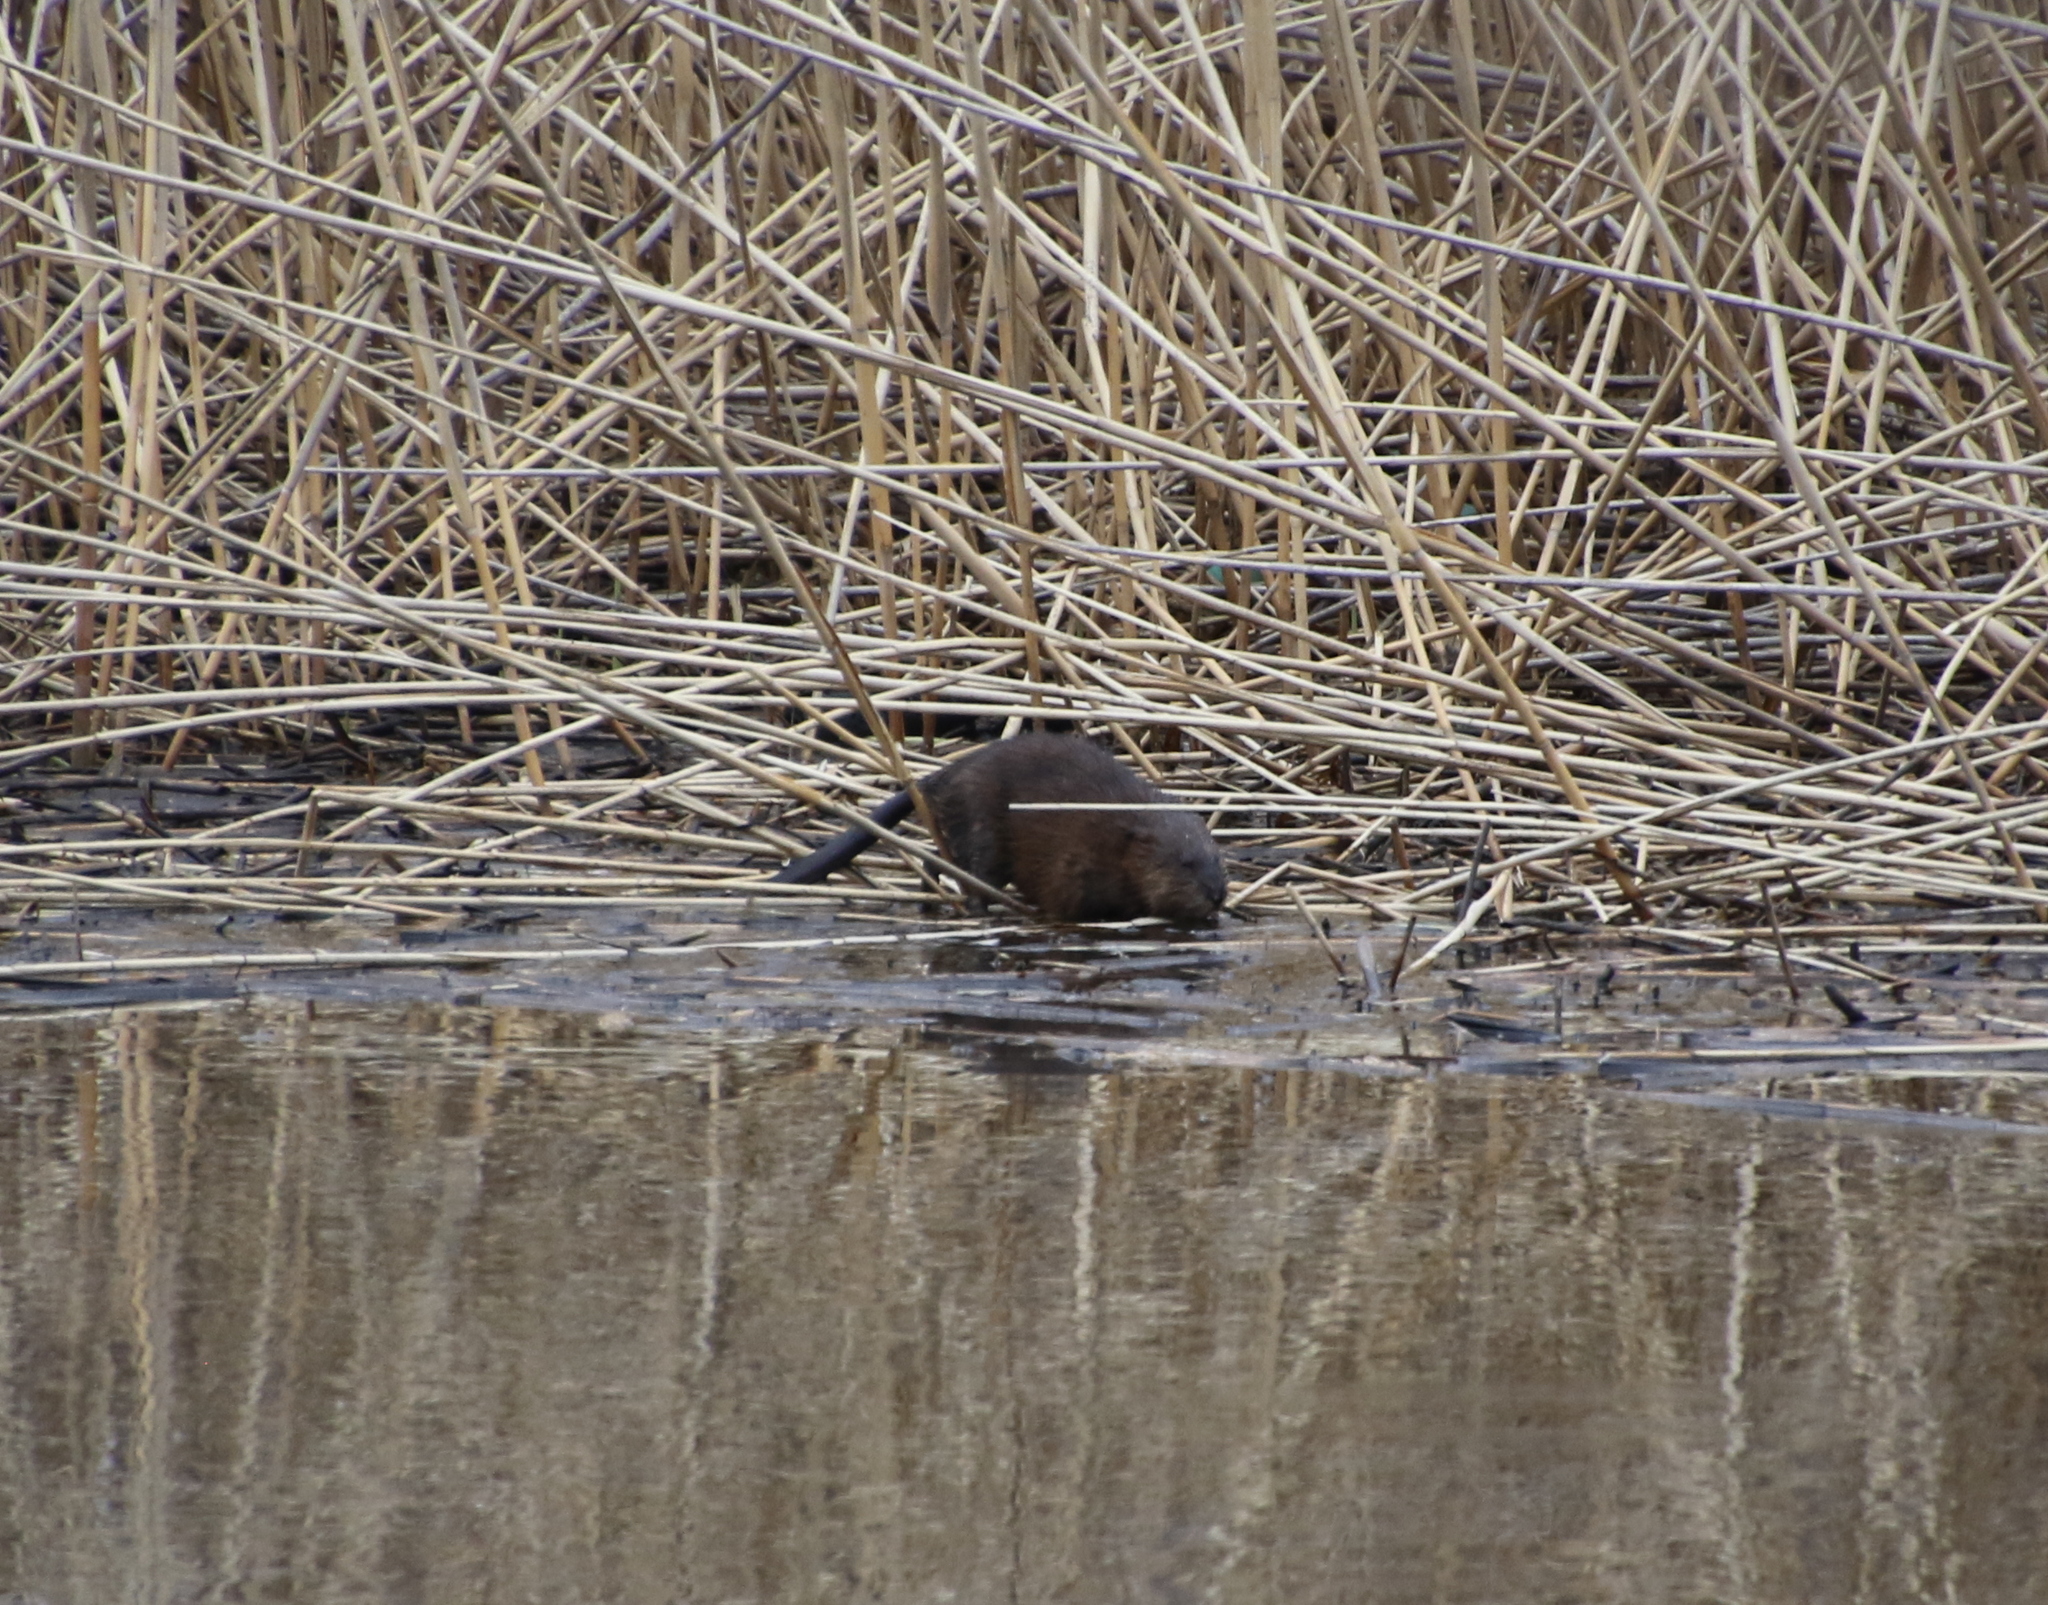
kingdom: Animalia
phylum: Chordata
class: Mammalia
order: Rodentia
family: Cricetidae
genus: Ondatra
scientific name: Ondatra zibethicus
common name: Muskrat
